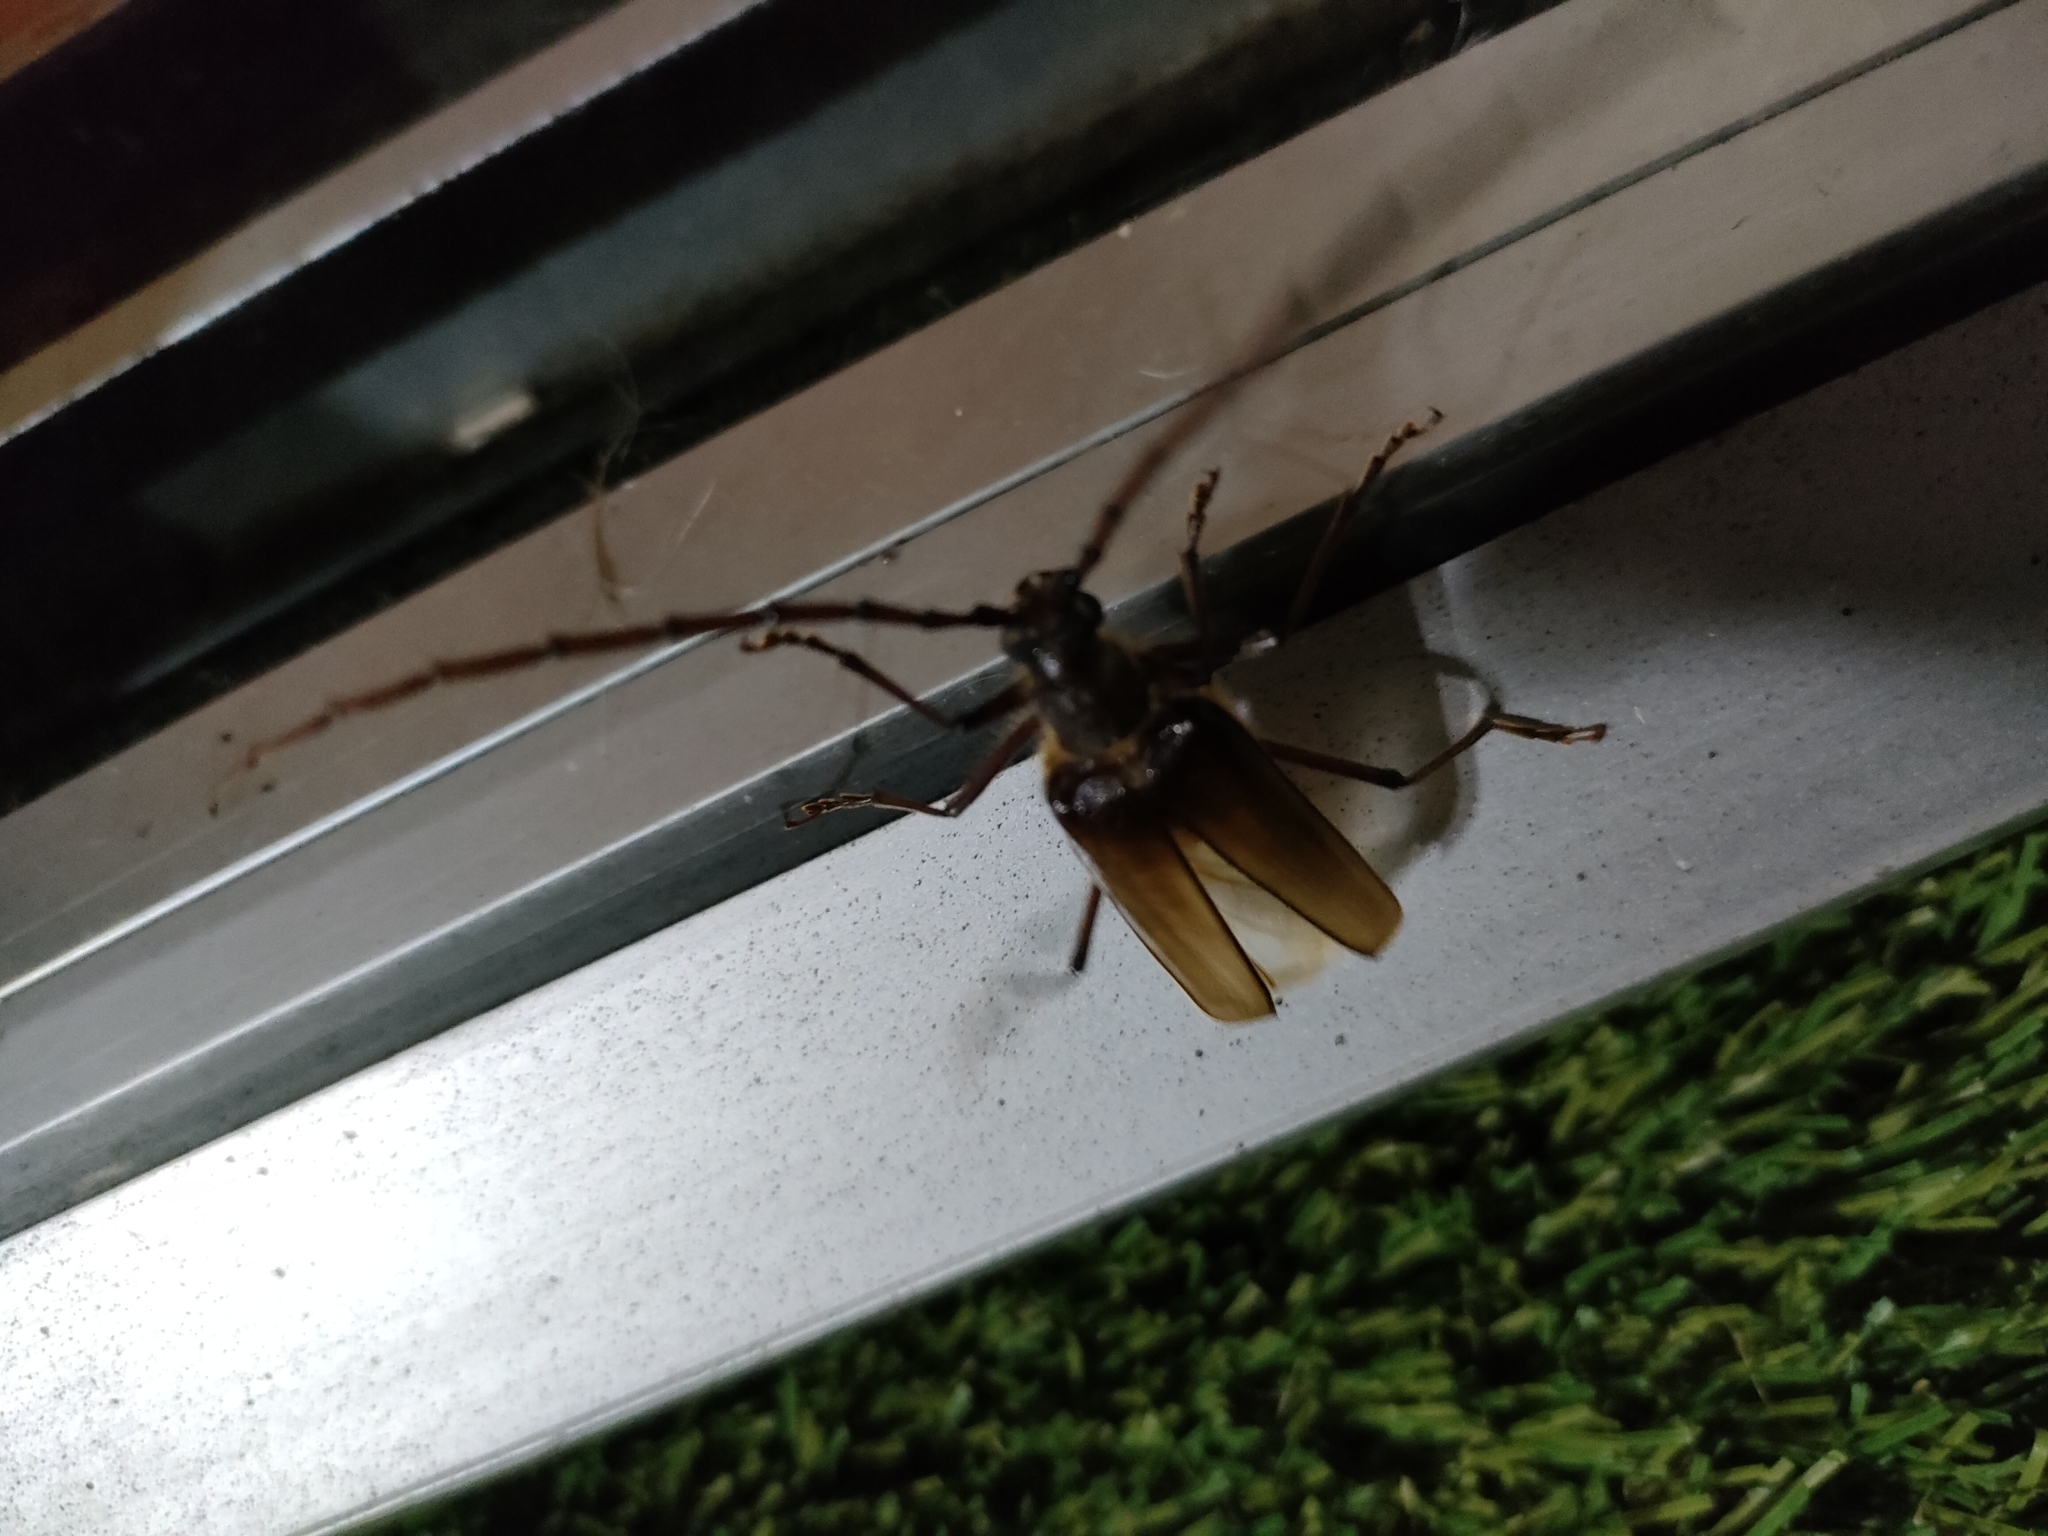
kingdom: Animalia
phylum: Arthropoda
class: Insecta
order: Coleoptera
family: Cerambycidae
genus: Ochrocydus
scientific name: Ochrocydus huttoni
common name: Kanuka longhorn
